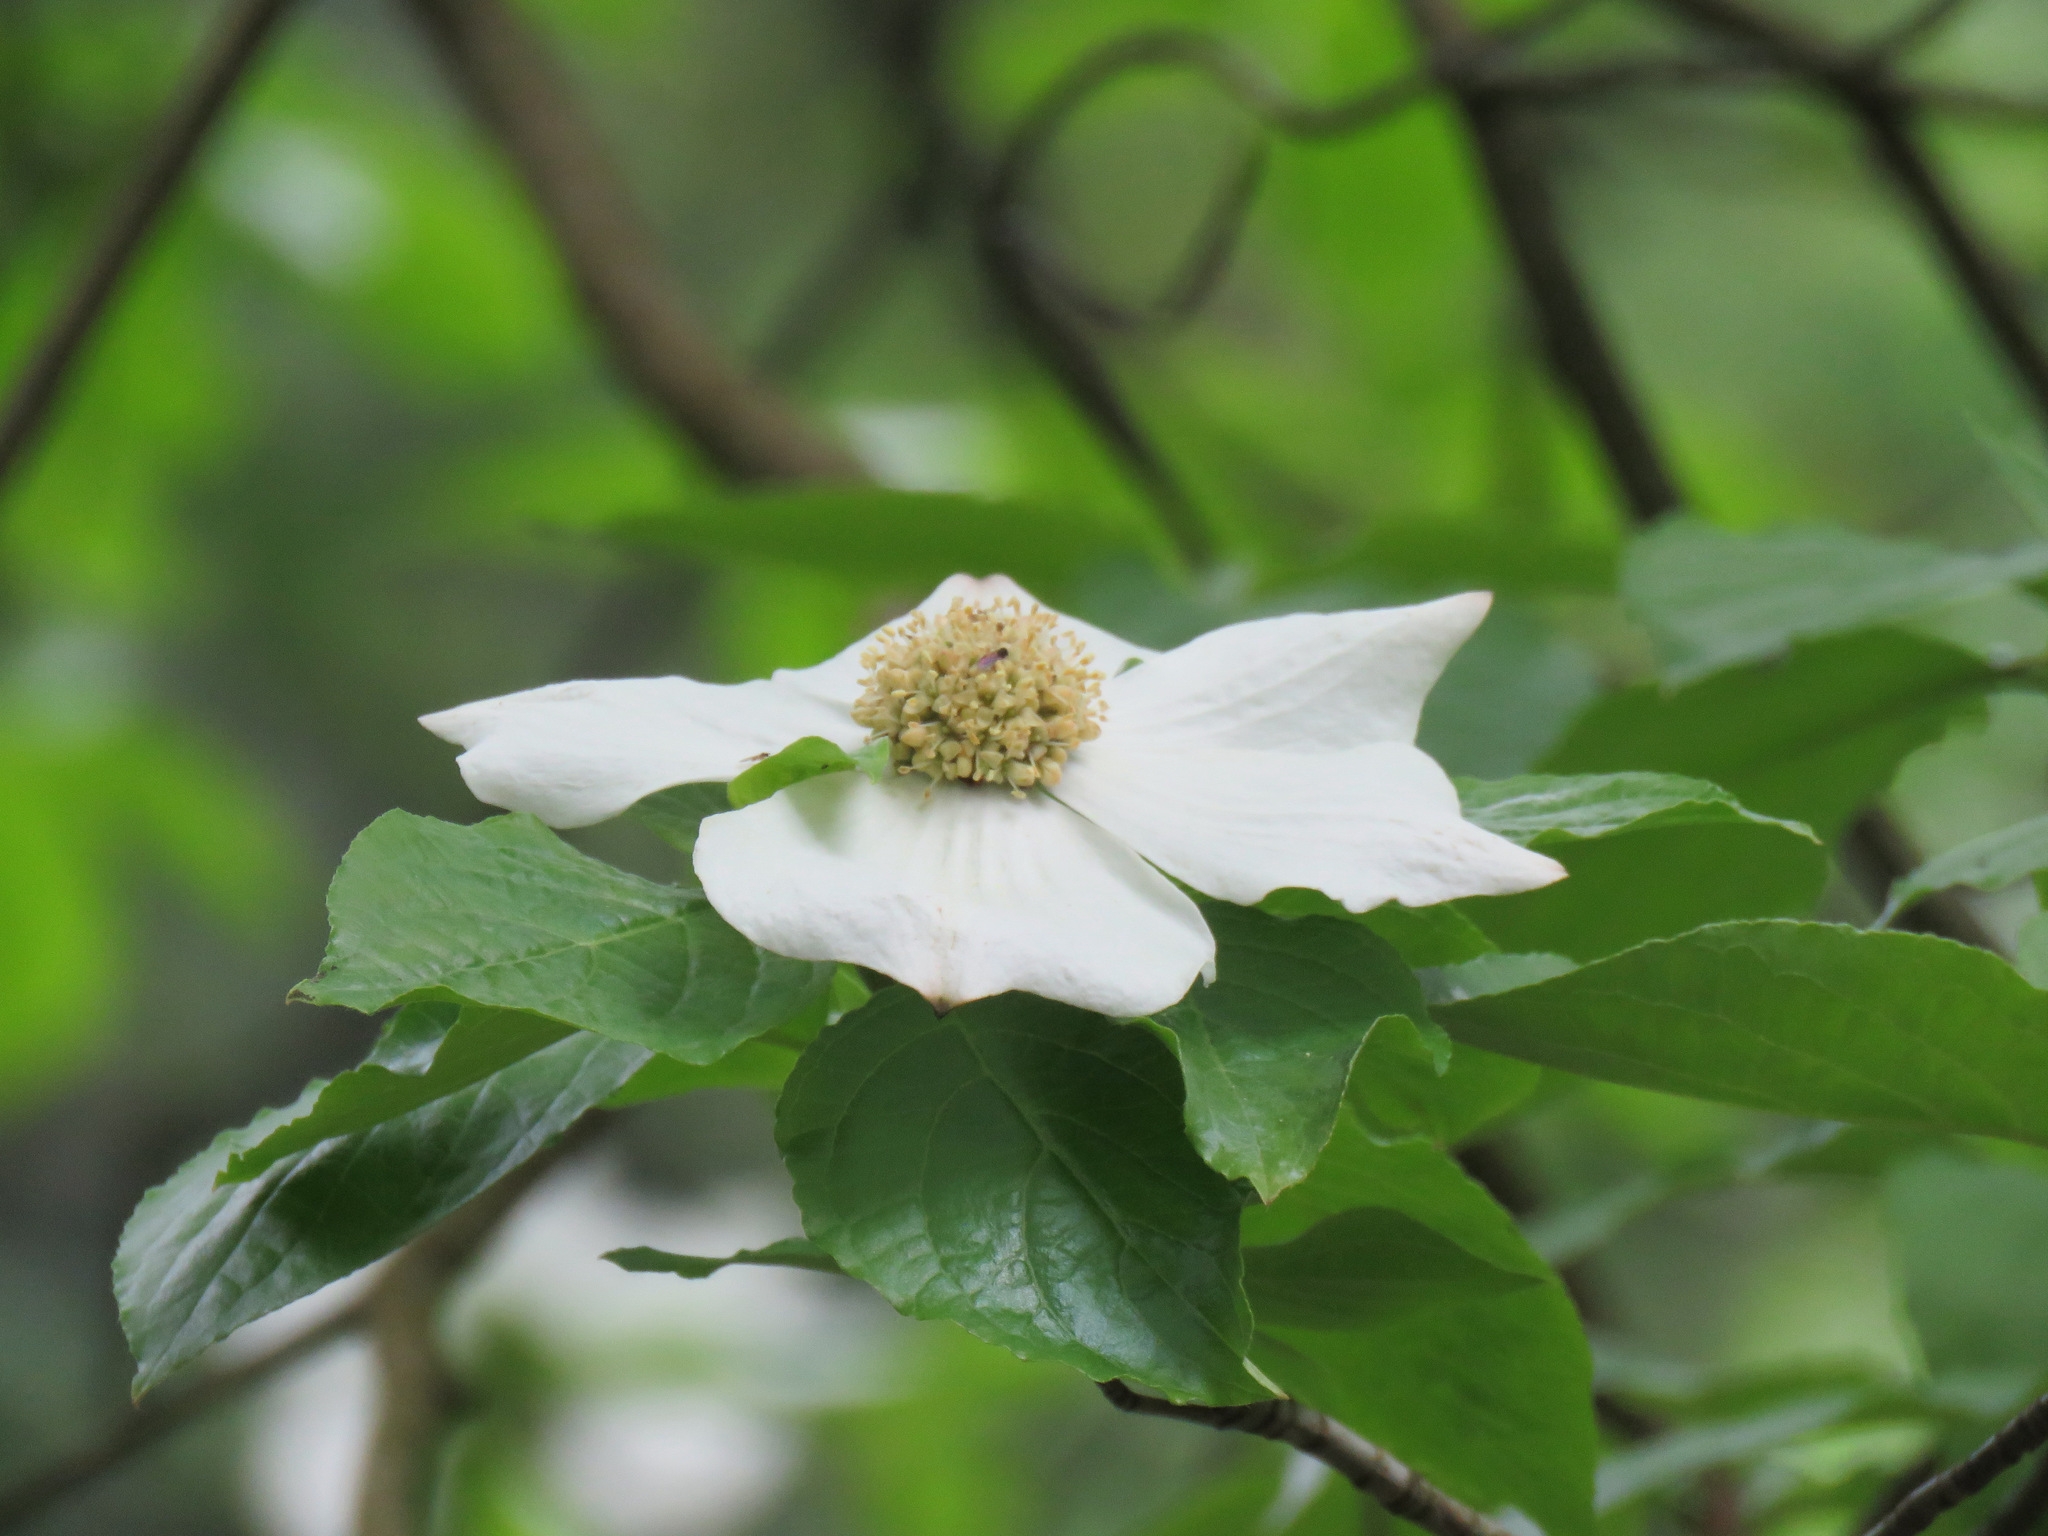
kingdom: Plantae
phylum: Tracheophyta
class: Magnoliopsida
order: Cornales
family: Cornaceae
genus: Cornus
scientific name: Cornus nuttallii
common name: Pacific dogwood
